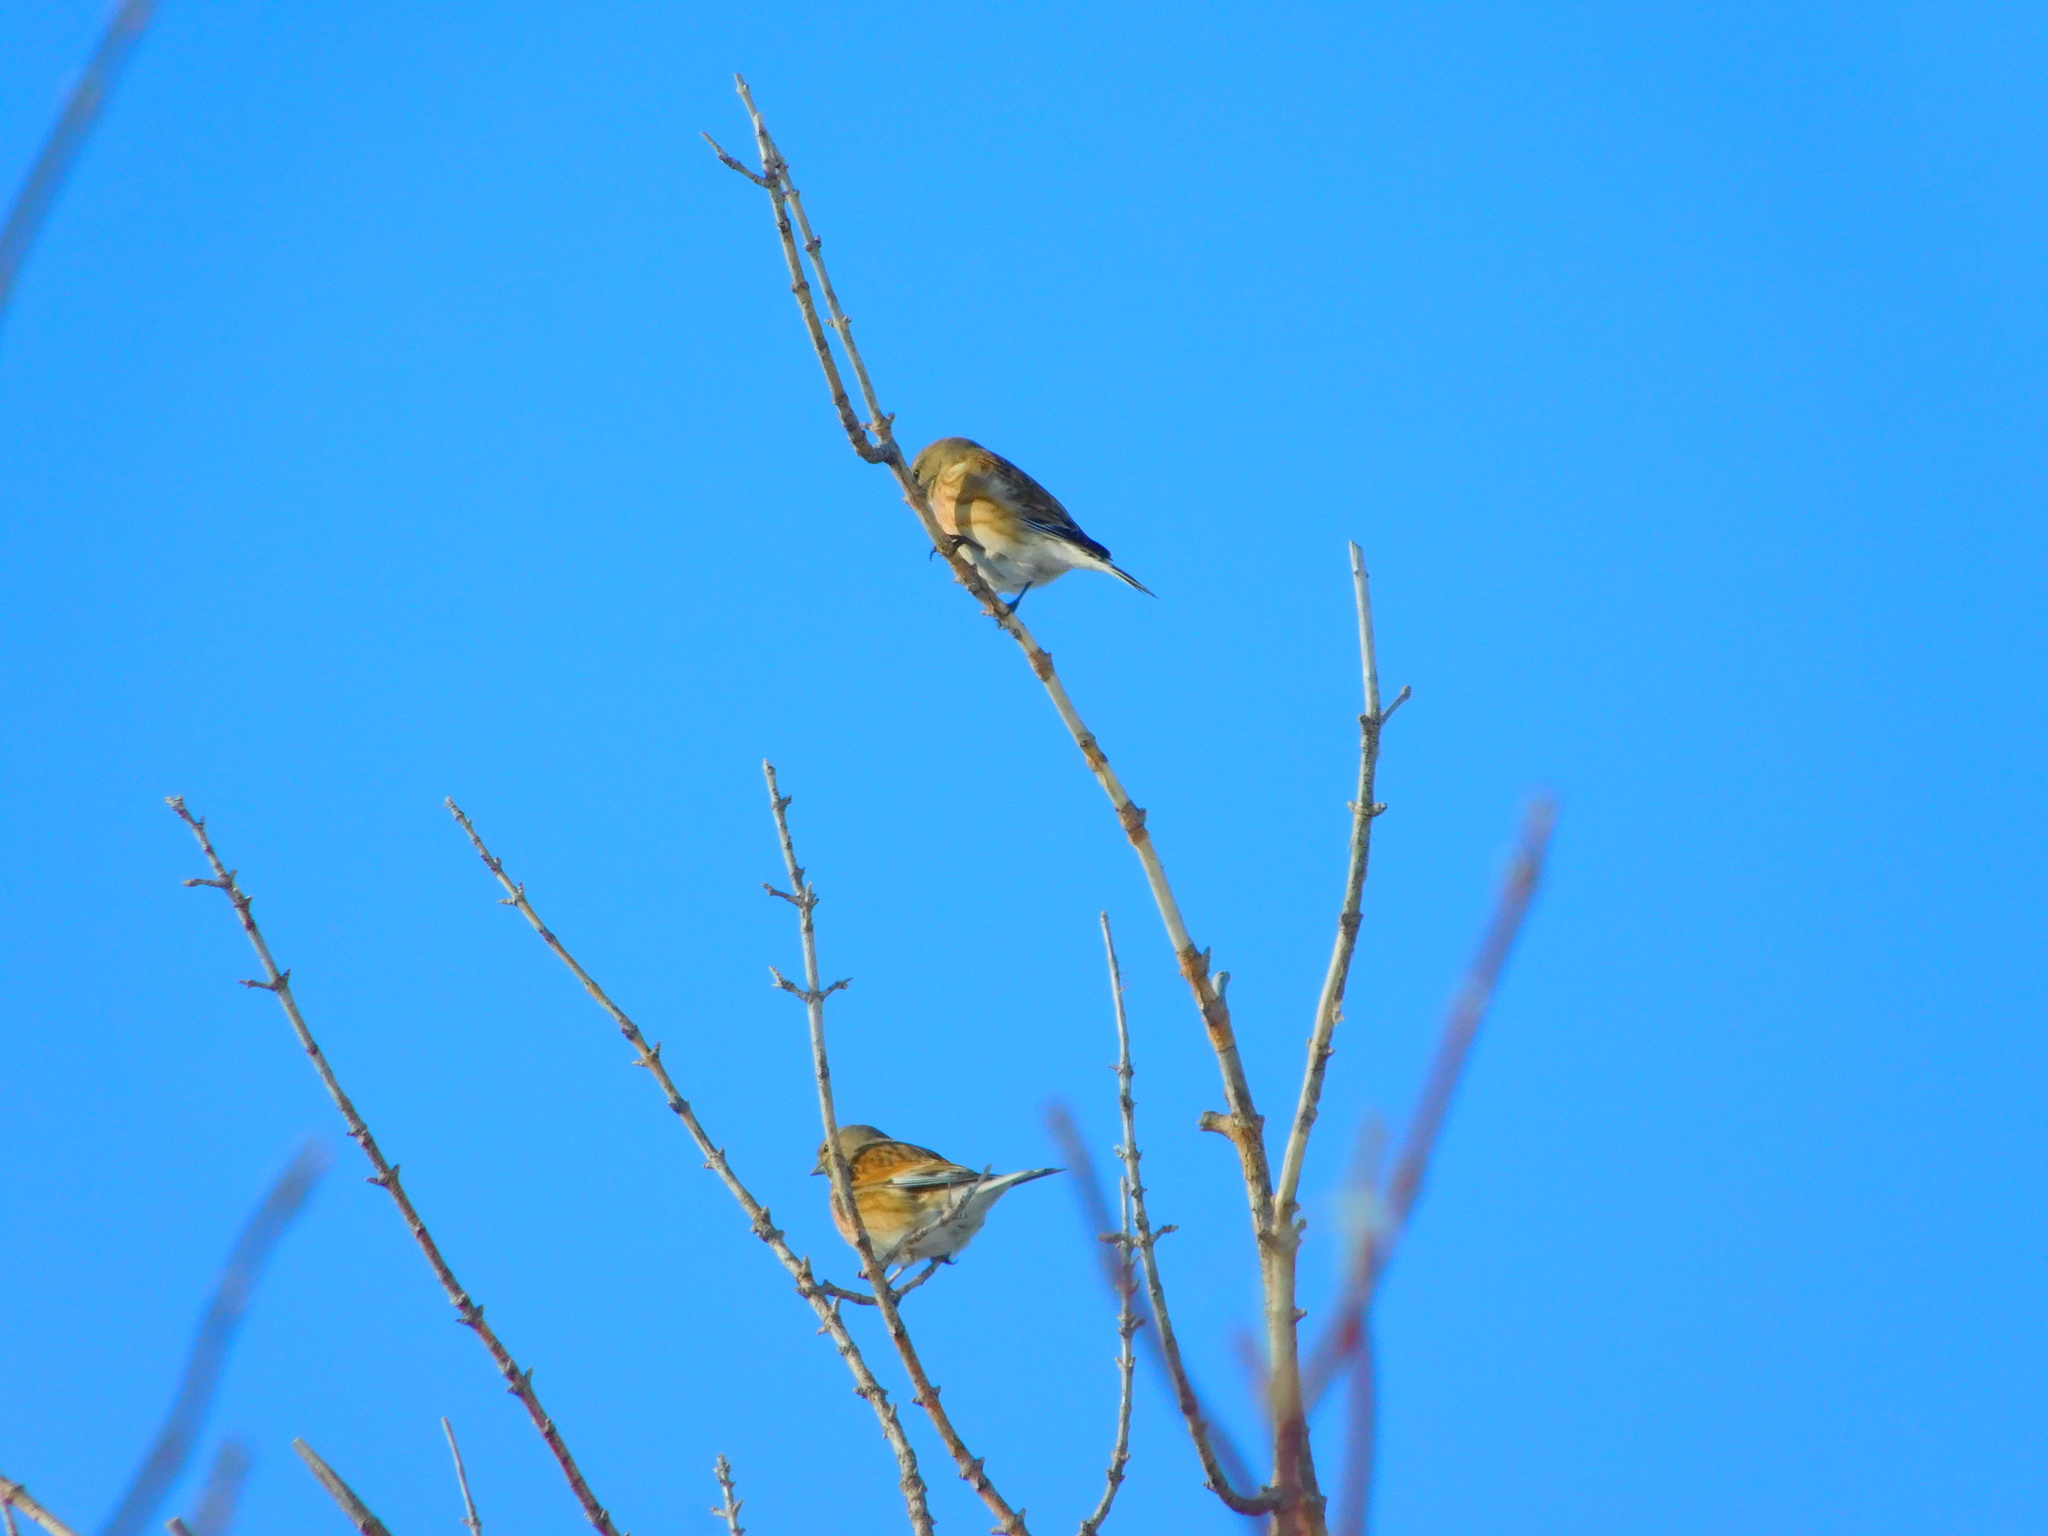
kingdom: Animalia
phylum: Chordata
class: Aves
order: Passeriformes
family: Fringillidae
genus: Linaria
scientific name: Linaria cannabina
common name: Common linnet
